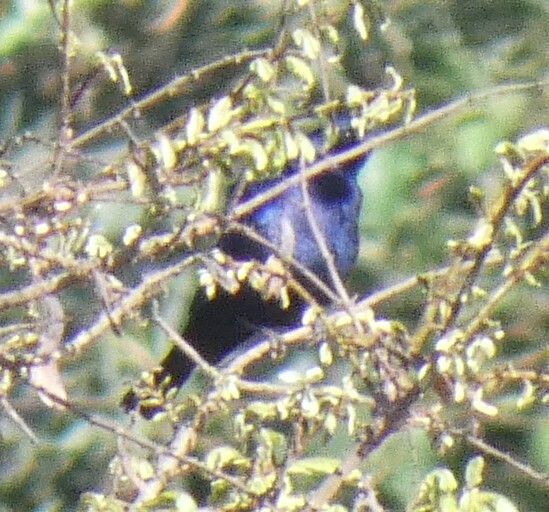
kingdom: Animalia
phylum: Chordata
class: Aves
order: Passeriformes
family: Icteridae
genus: Molothrus
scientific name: Molothrus bonariensis
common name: Shiny cowbird
